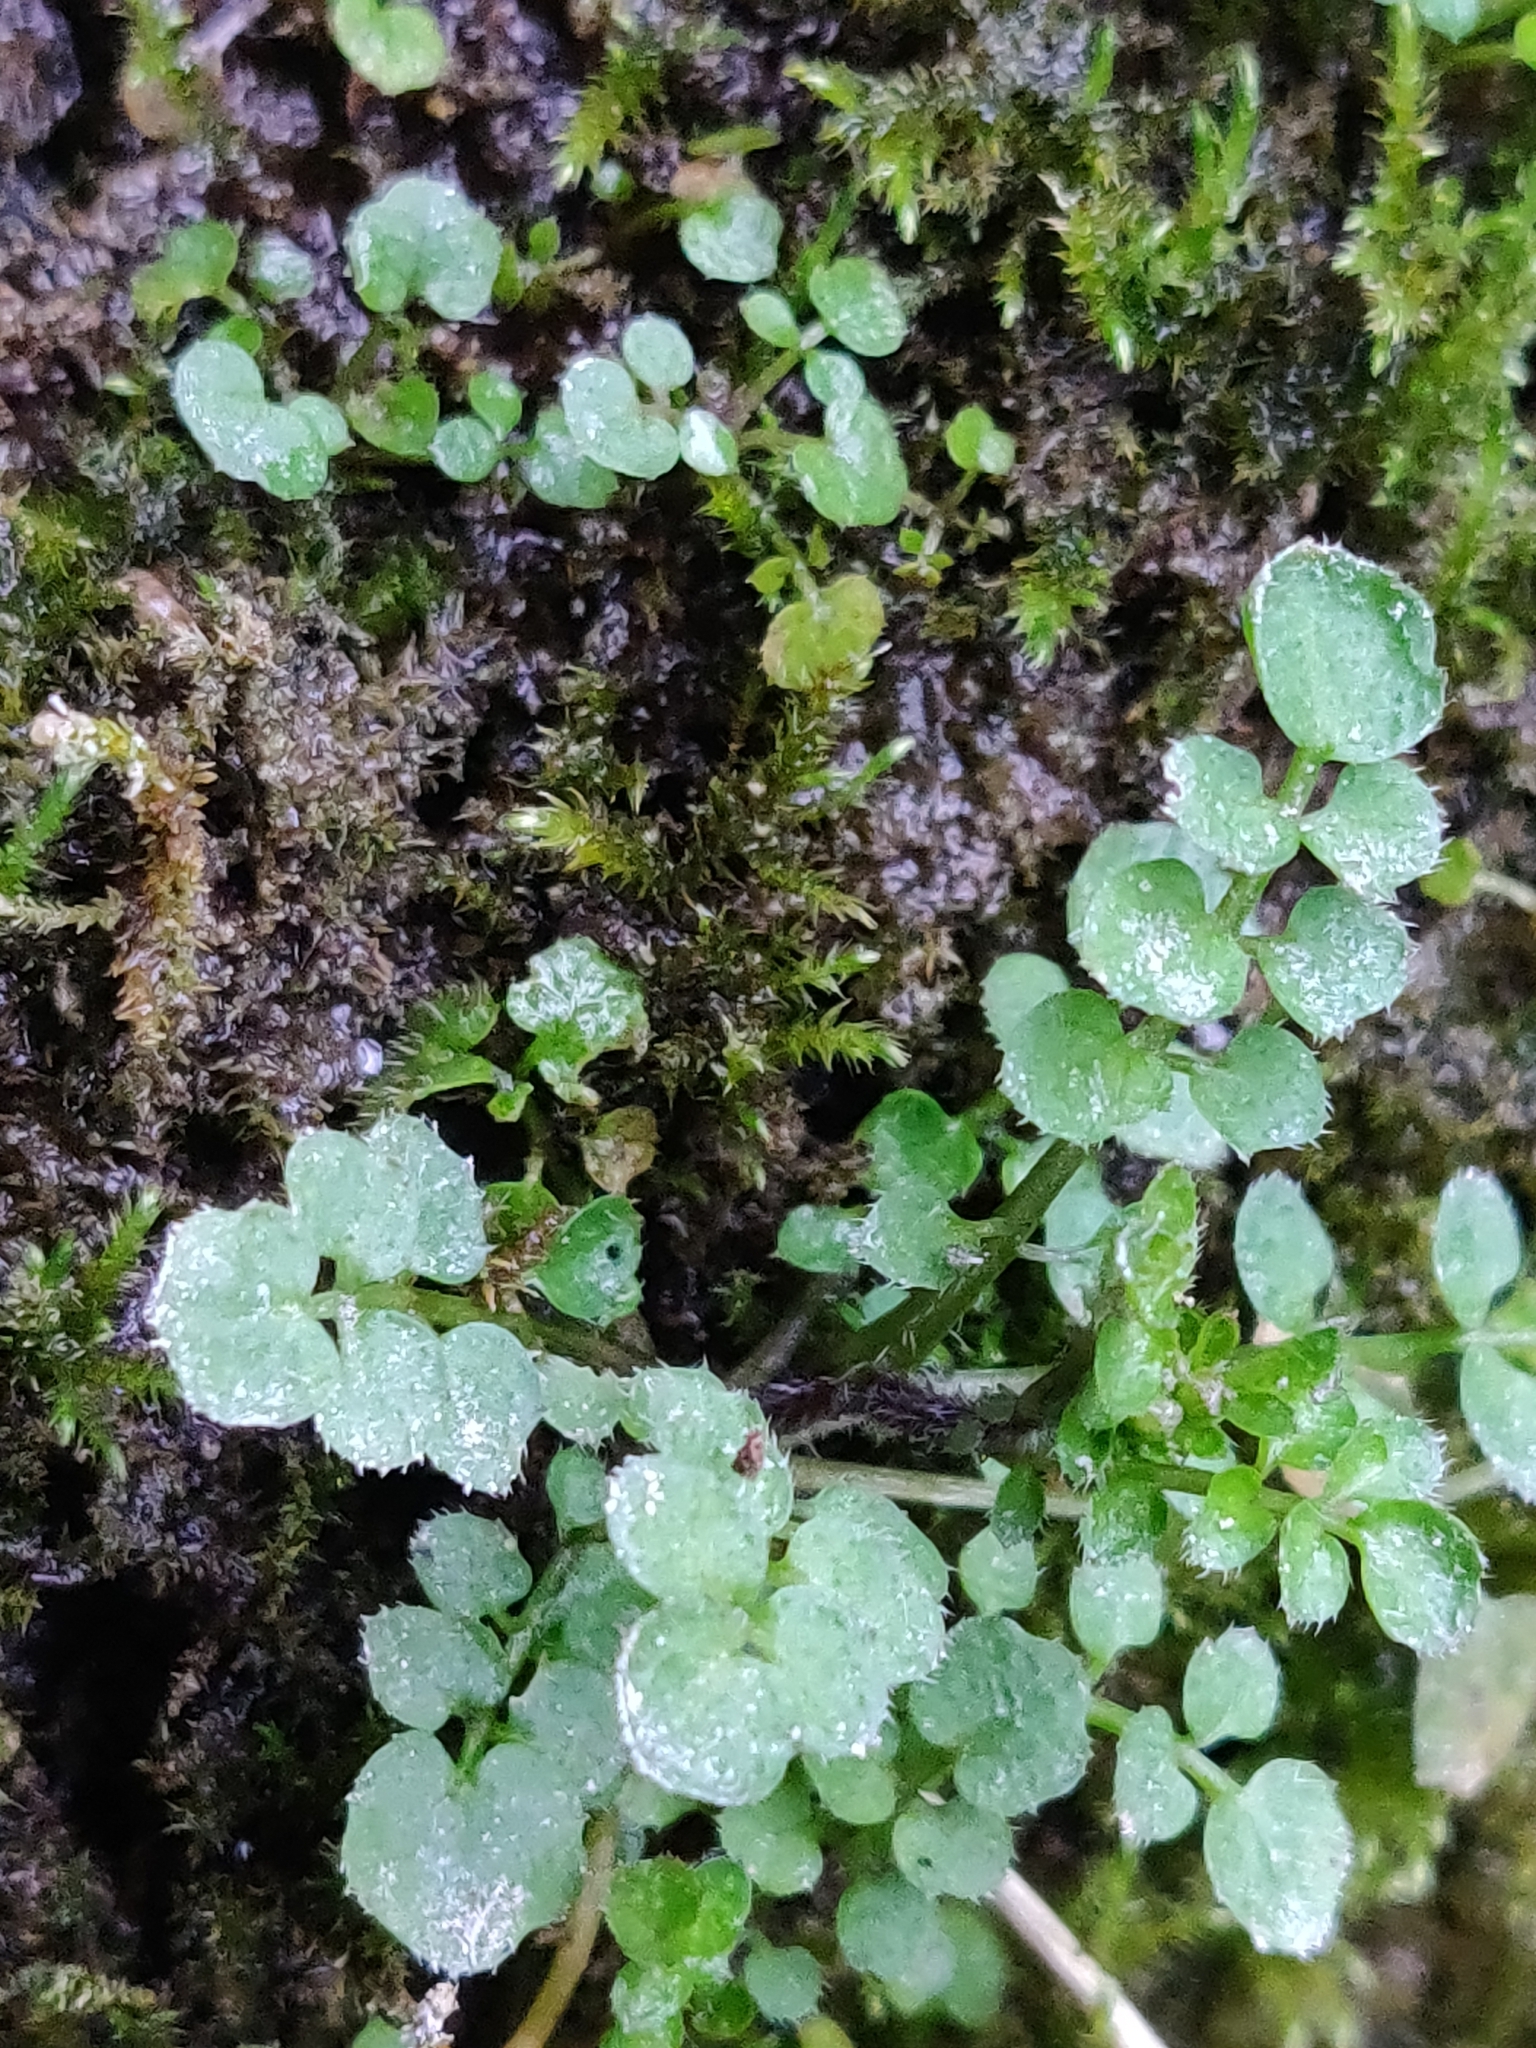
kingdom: Plantae
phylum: Tracheophyta
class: Magnoliopsida
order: Brassicales
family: Brassicaceae
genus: Cardamine
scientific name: Cardamine hirsuta
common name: Hairy bittercress
